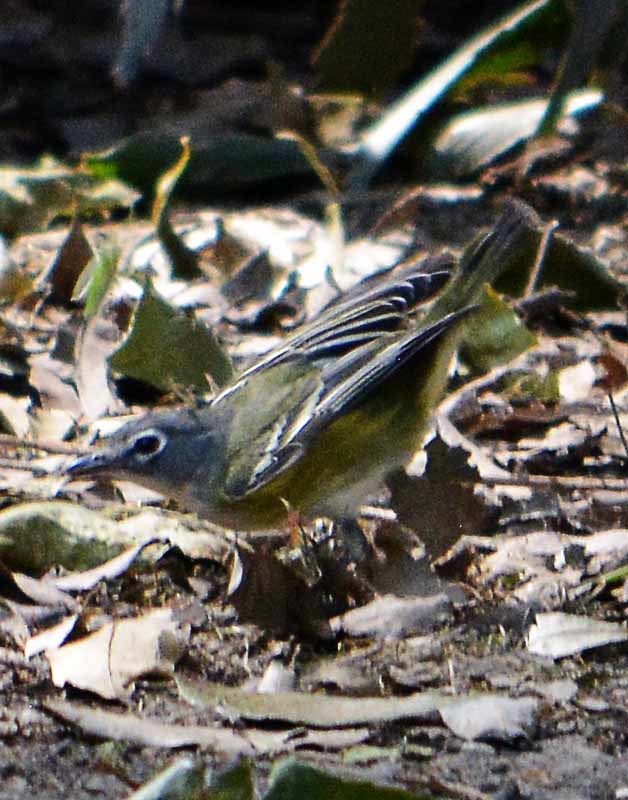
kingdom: Animalia
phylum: Chordata
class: Aves
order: Passeriformes
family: Vireonidae
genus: Vireo
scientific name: Vireo solitarius
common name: Blue-headed vireo
